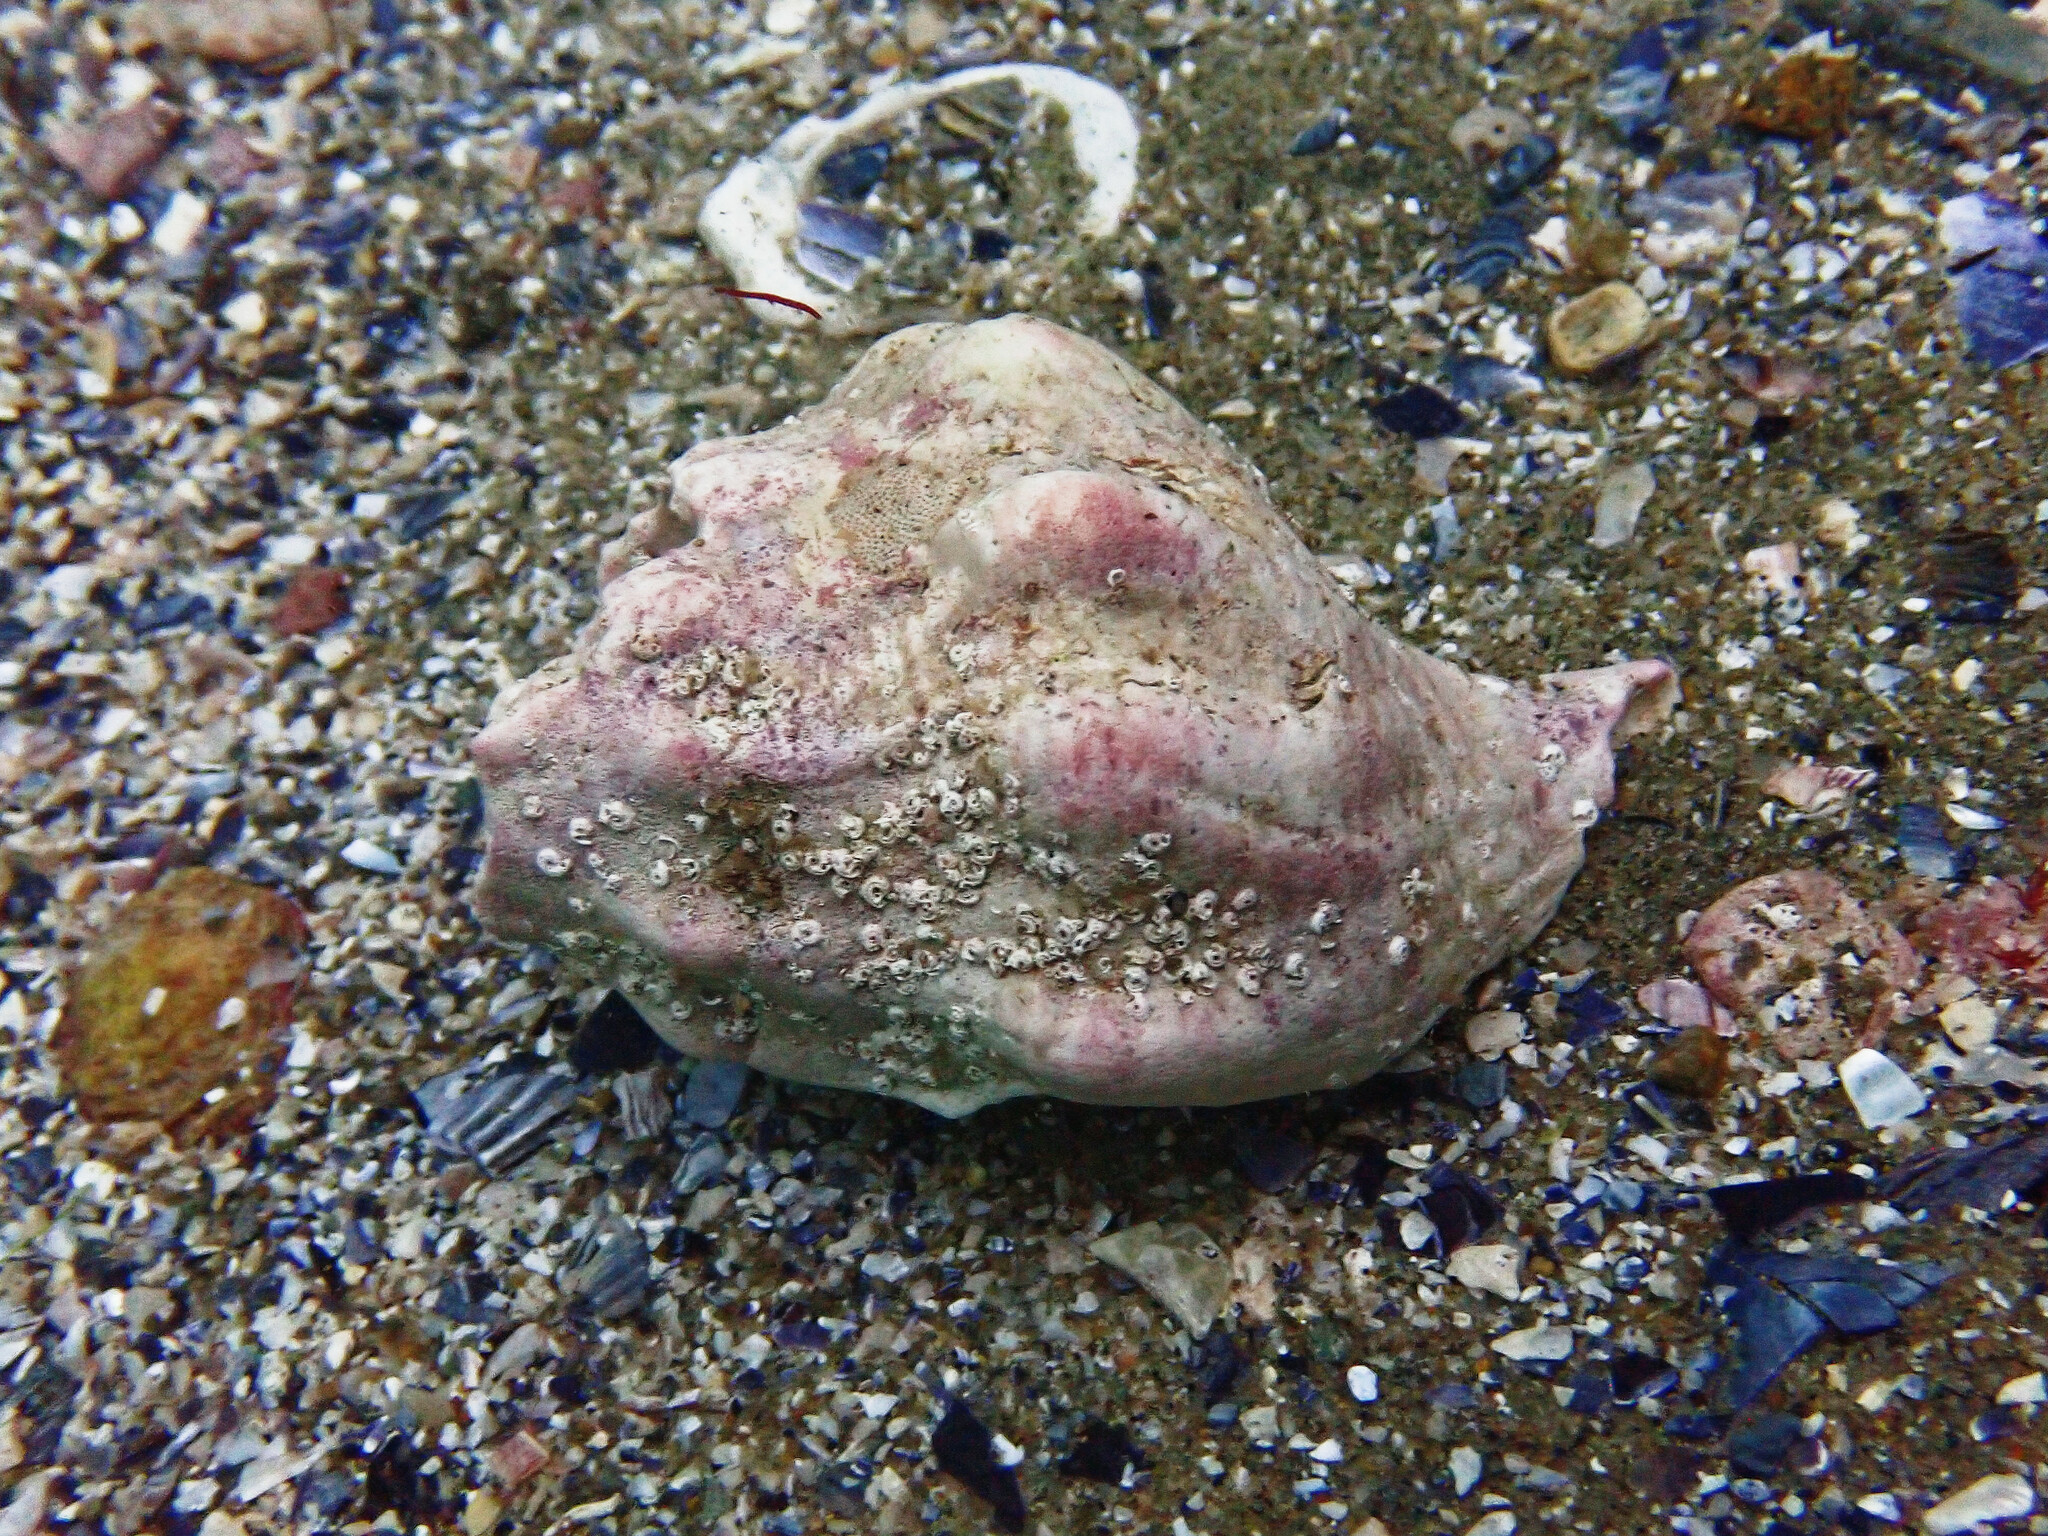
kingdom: Animalia
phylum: Mollusca
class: Gastropoda
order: Neogastropoda
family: Austrosiphonidae
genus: Kelletia
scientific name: Kelletia kelletii
